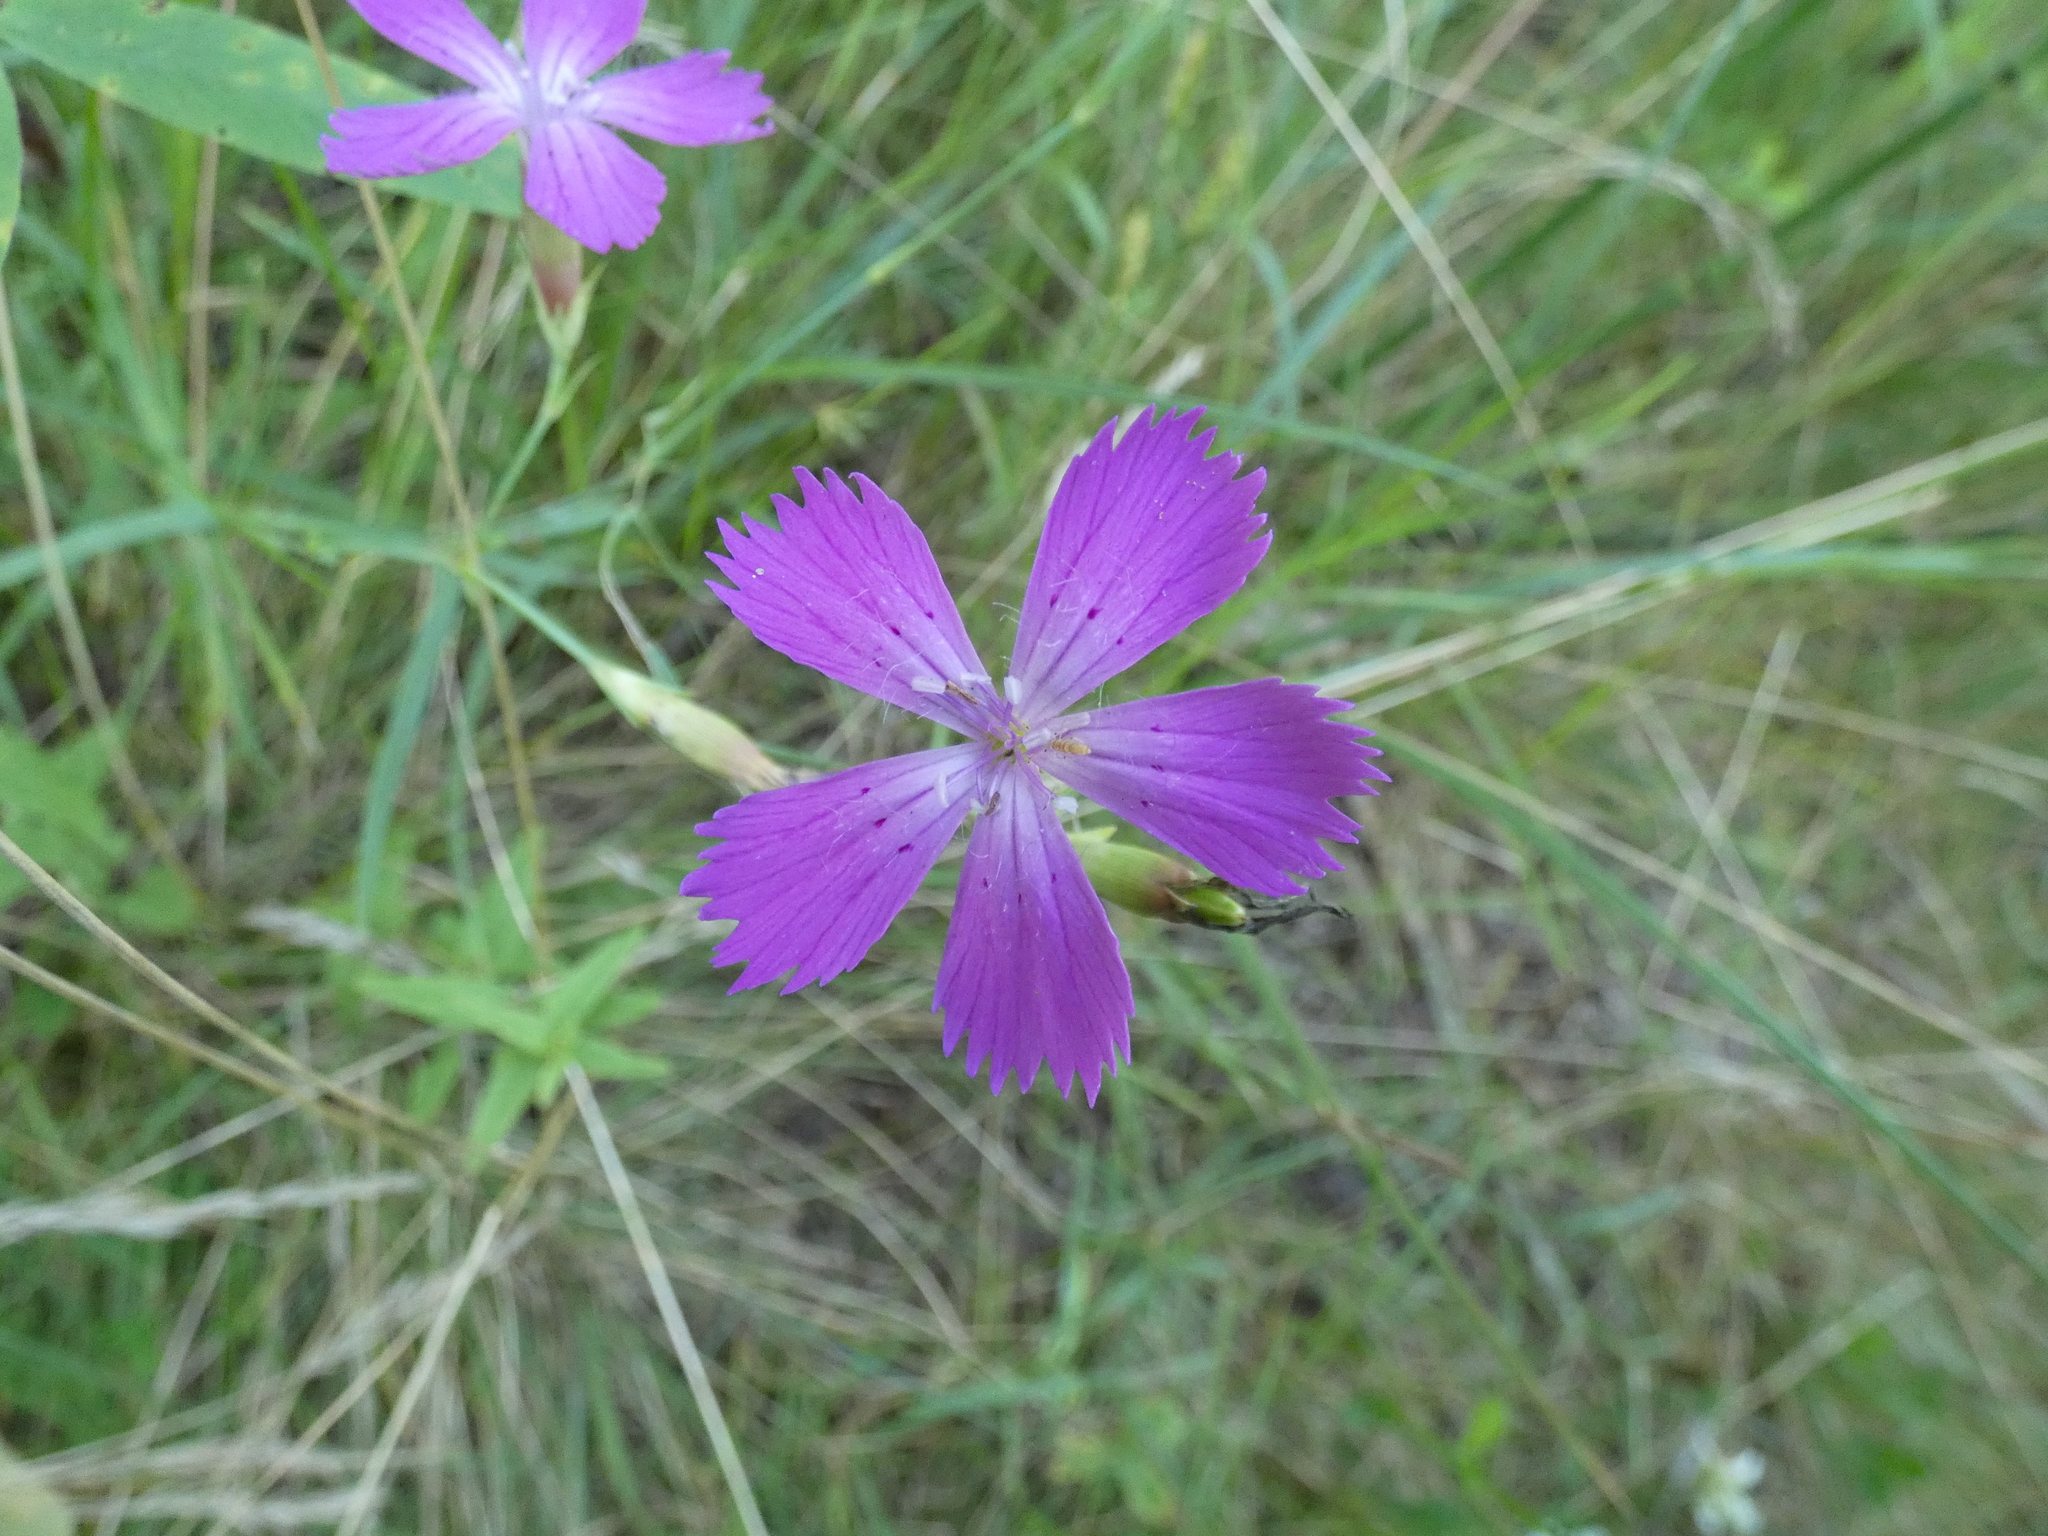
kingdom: Plantae
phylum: Tracheophyta
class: Magnoliopsida
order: Caryophyllales
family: Caryophyllaceae
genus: Dianthus
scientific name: Dianthus chinensis
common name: Rainbow pink
